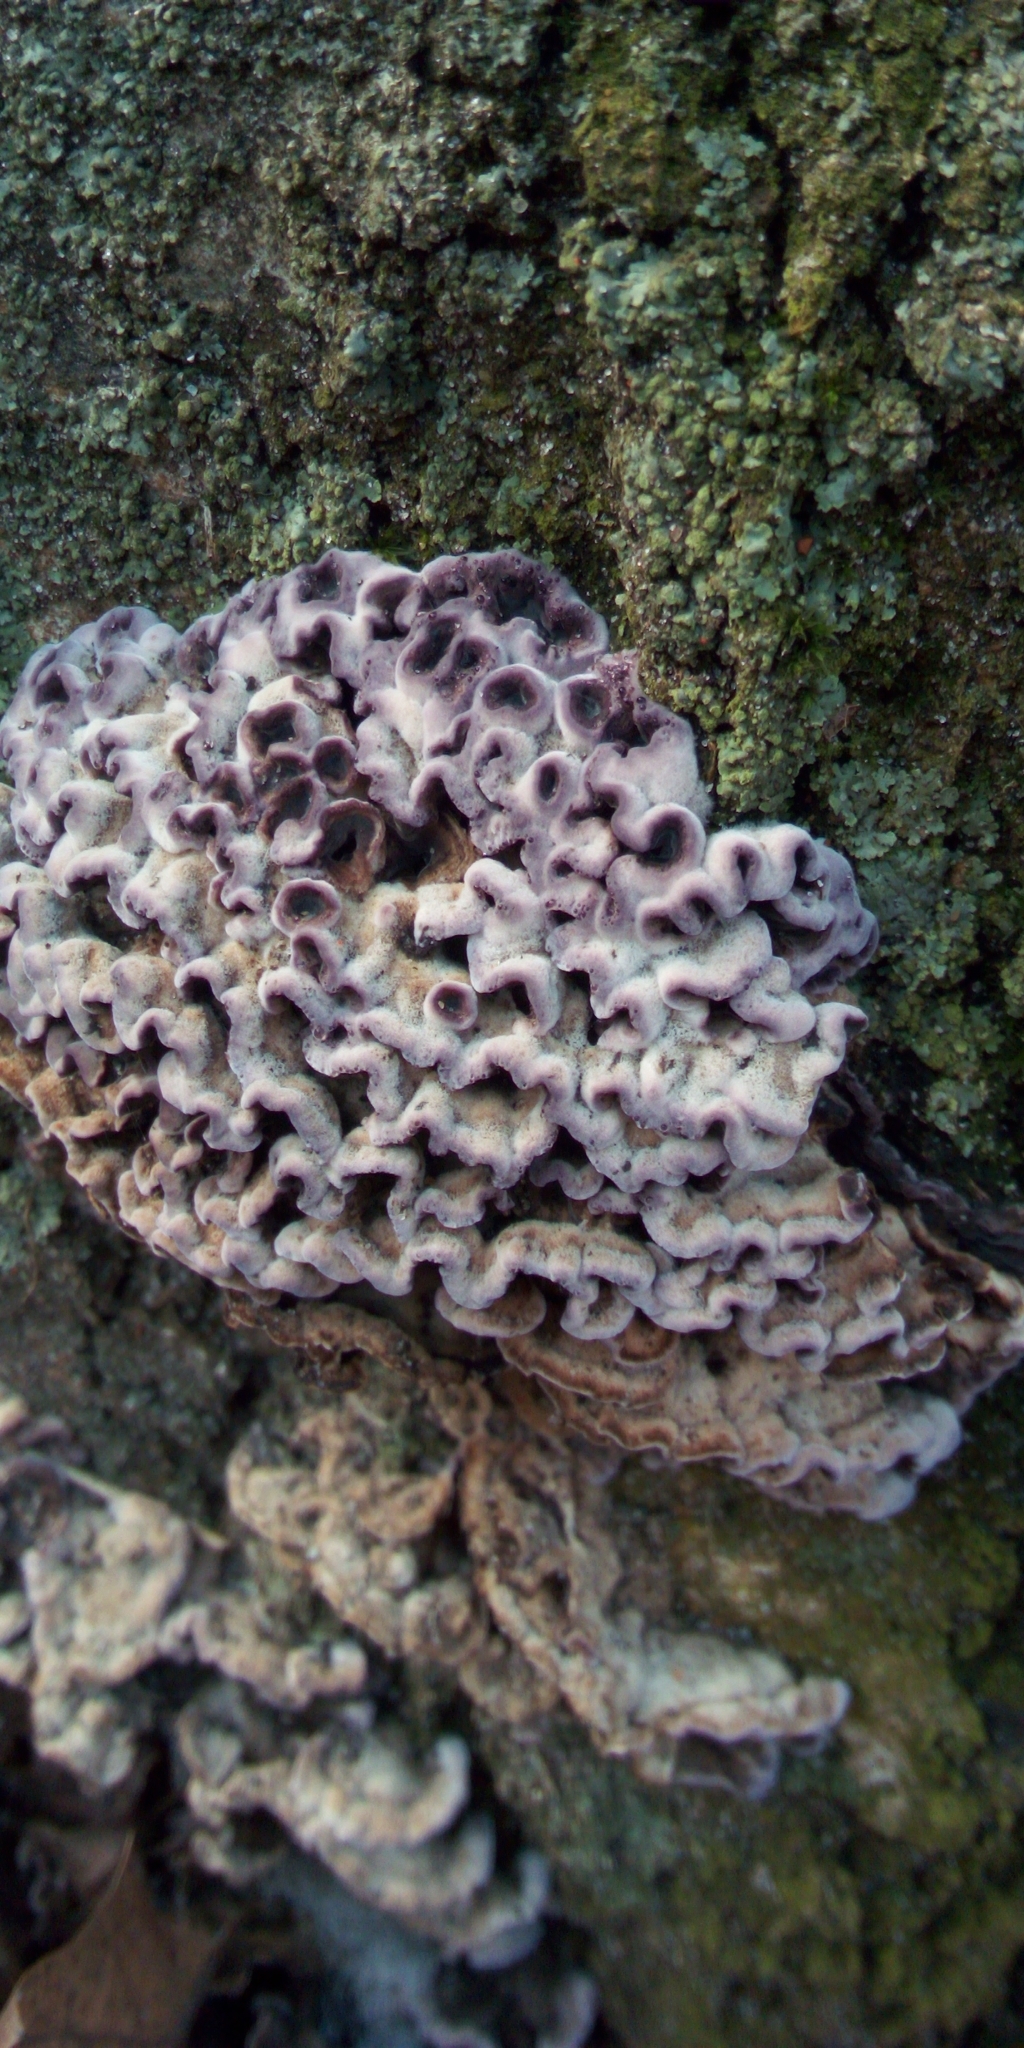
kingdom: Fungi
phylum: Basidiomycota
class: Agaricomycetes
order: Agaricales
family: Cyphellaceae
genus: Chondrostereum
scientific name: Chondrostereum purpureum
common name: Silver leaf disease
